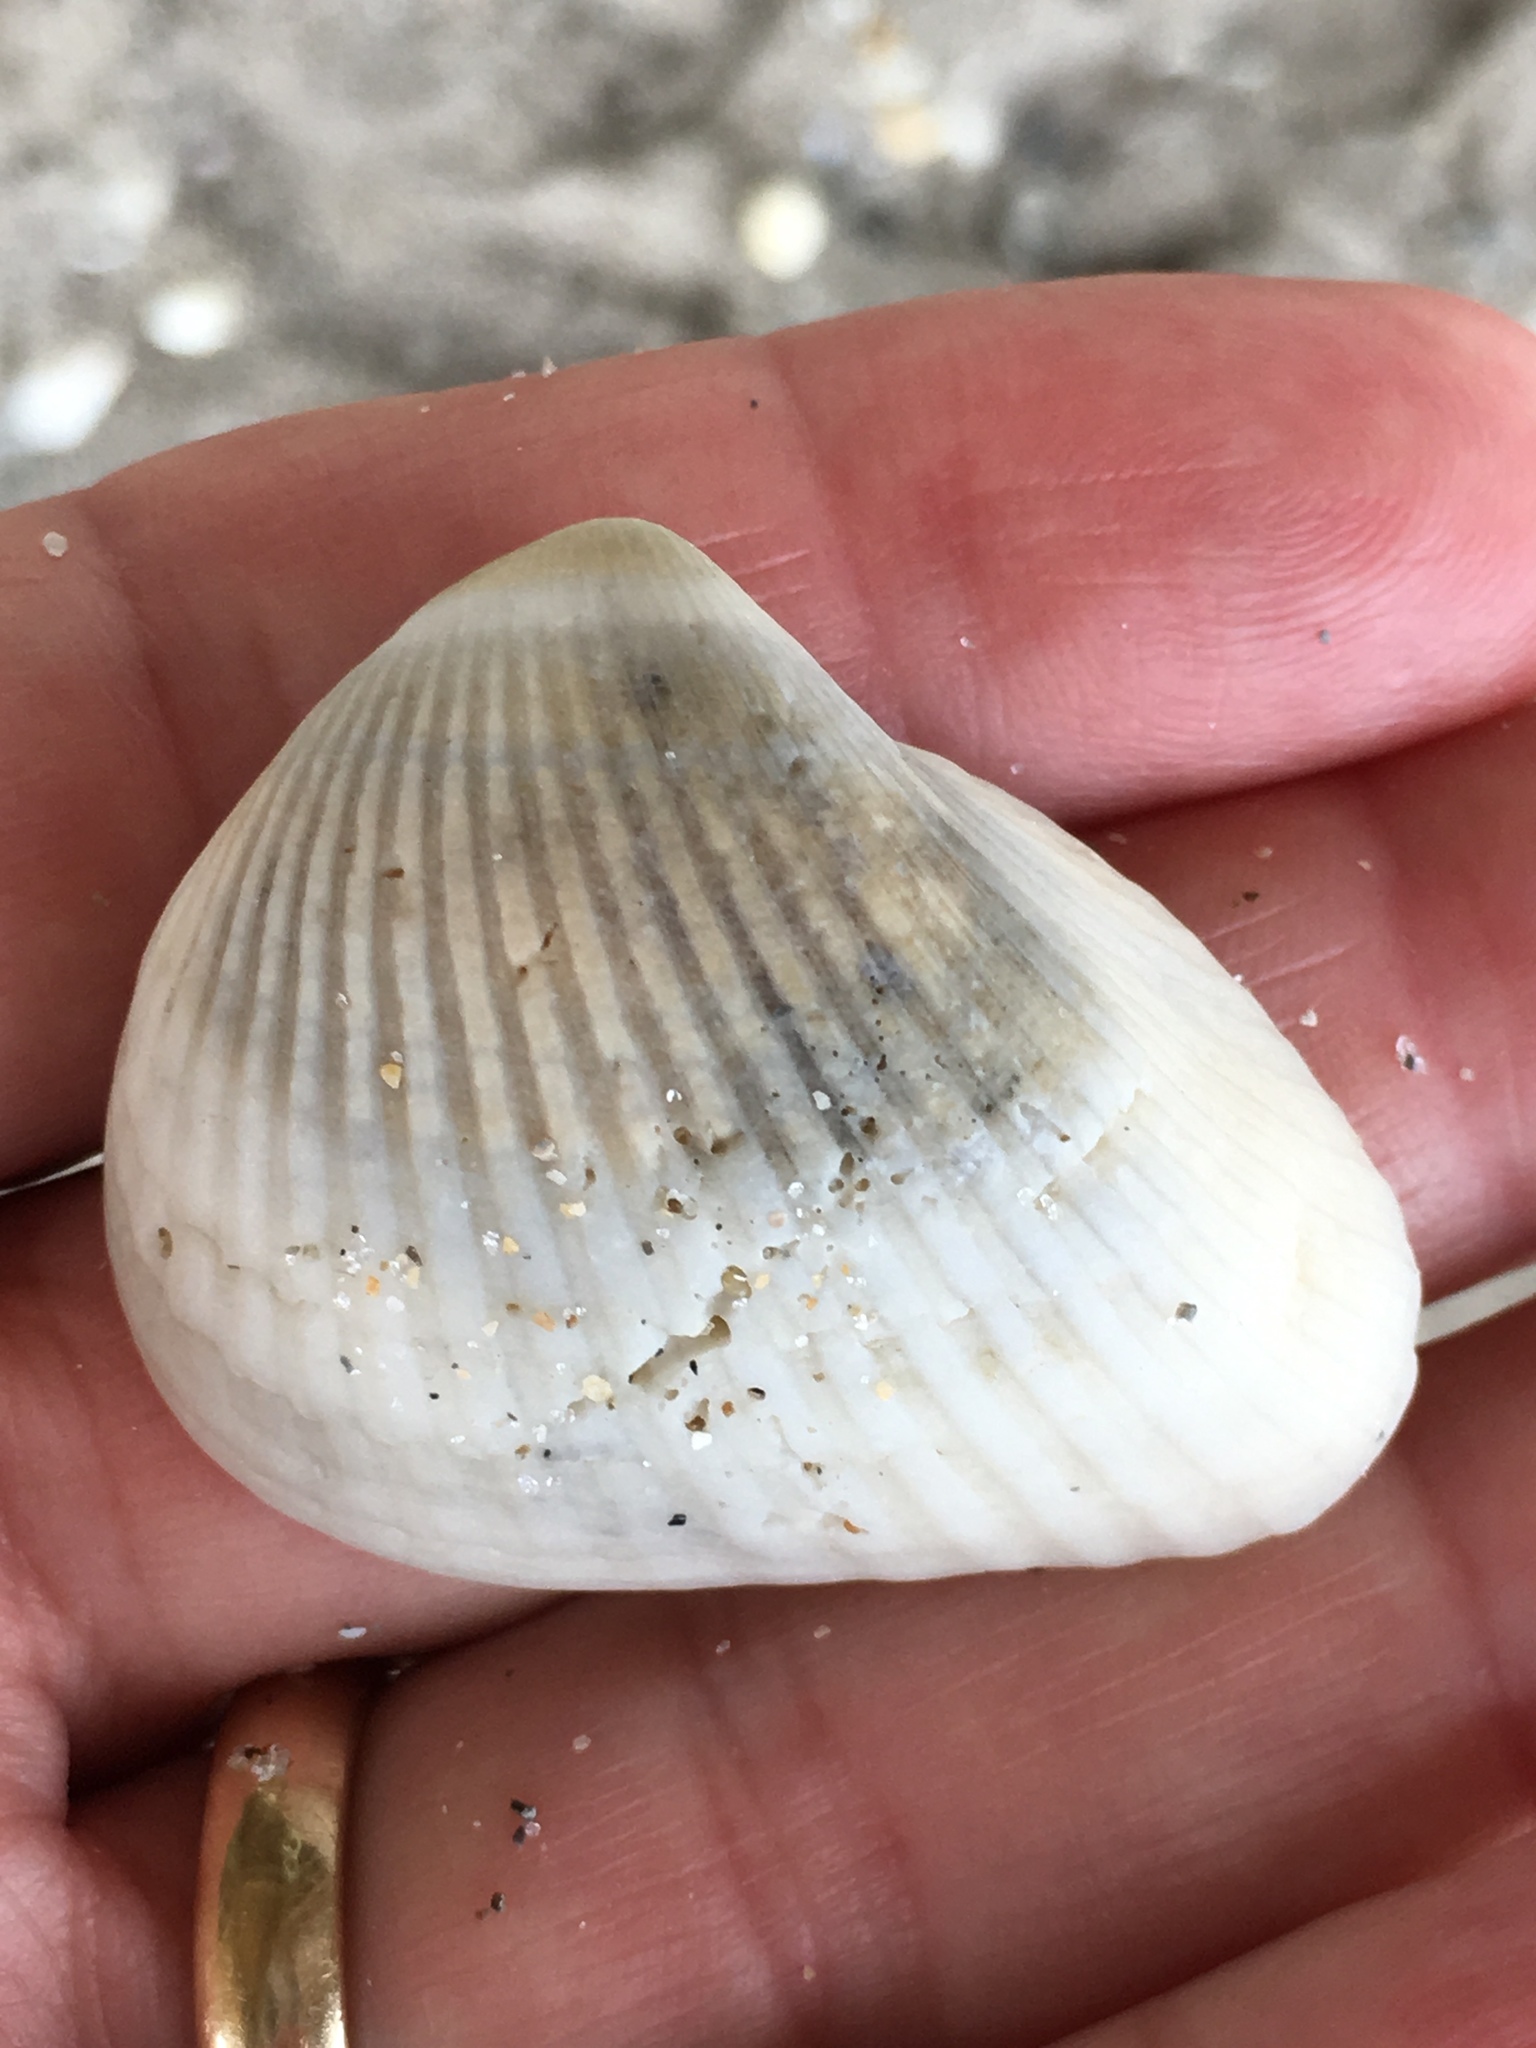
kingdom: Animalia
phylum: Mollusca
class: Bivalvia
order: Arcida
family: Noetiidae
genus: Noetia
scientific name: Noetia ponderosa
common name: Ponderous ark
